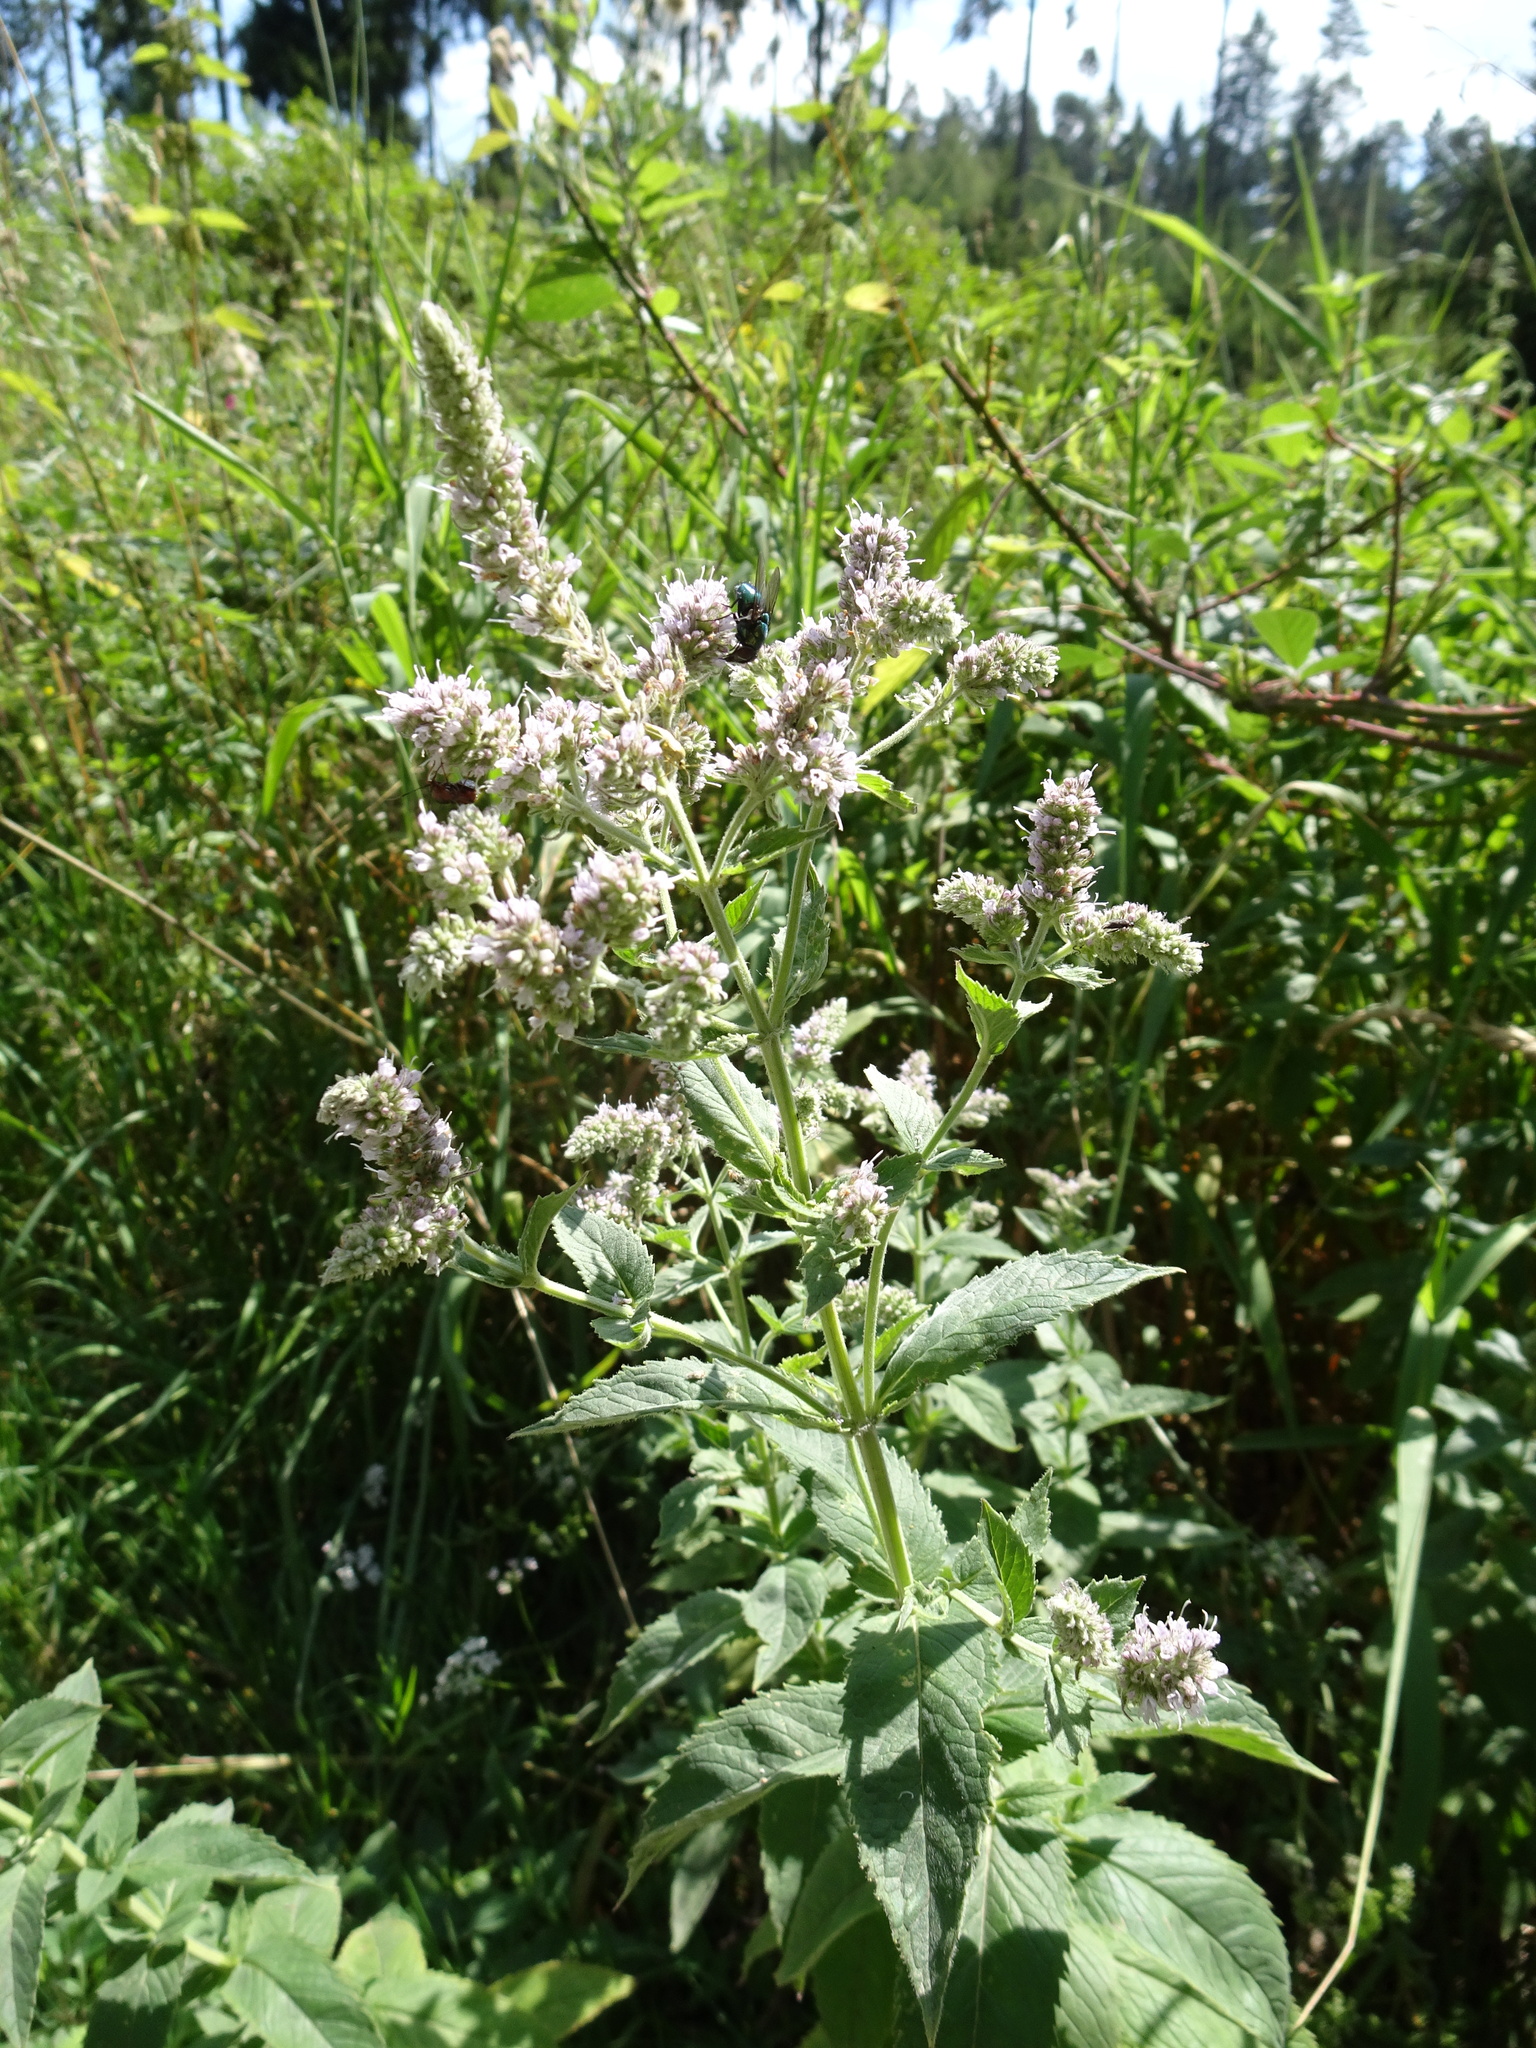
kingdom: Plantae
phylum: Tracheophyta
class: Magnoliopsida
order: Lamiales
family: Lamiaceae
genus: Mentha
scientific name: Mentha longifolia
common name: Horse mint
